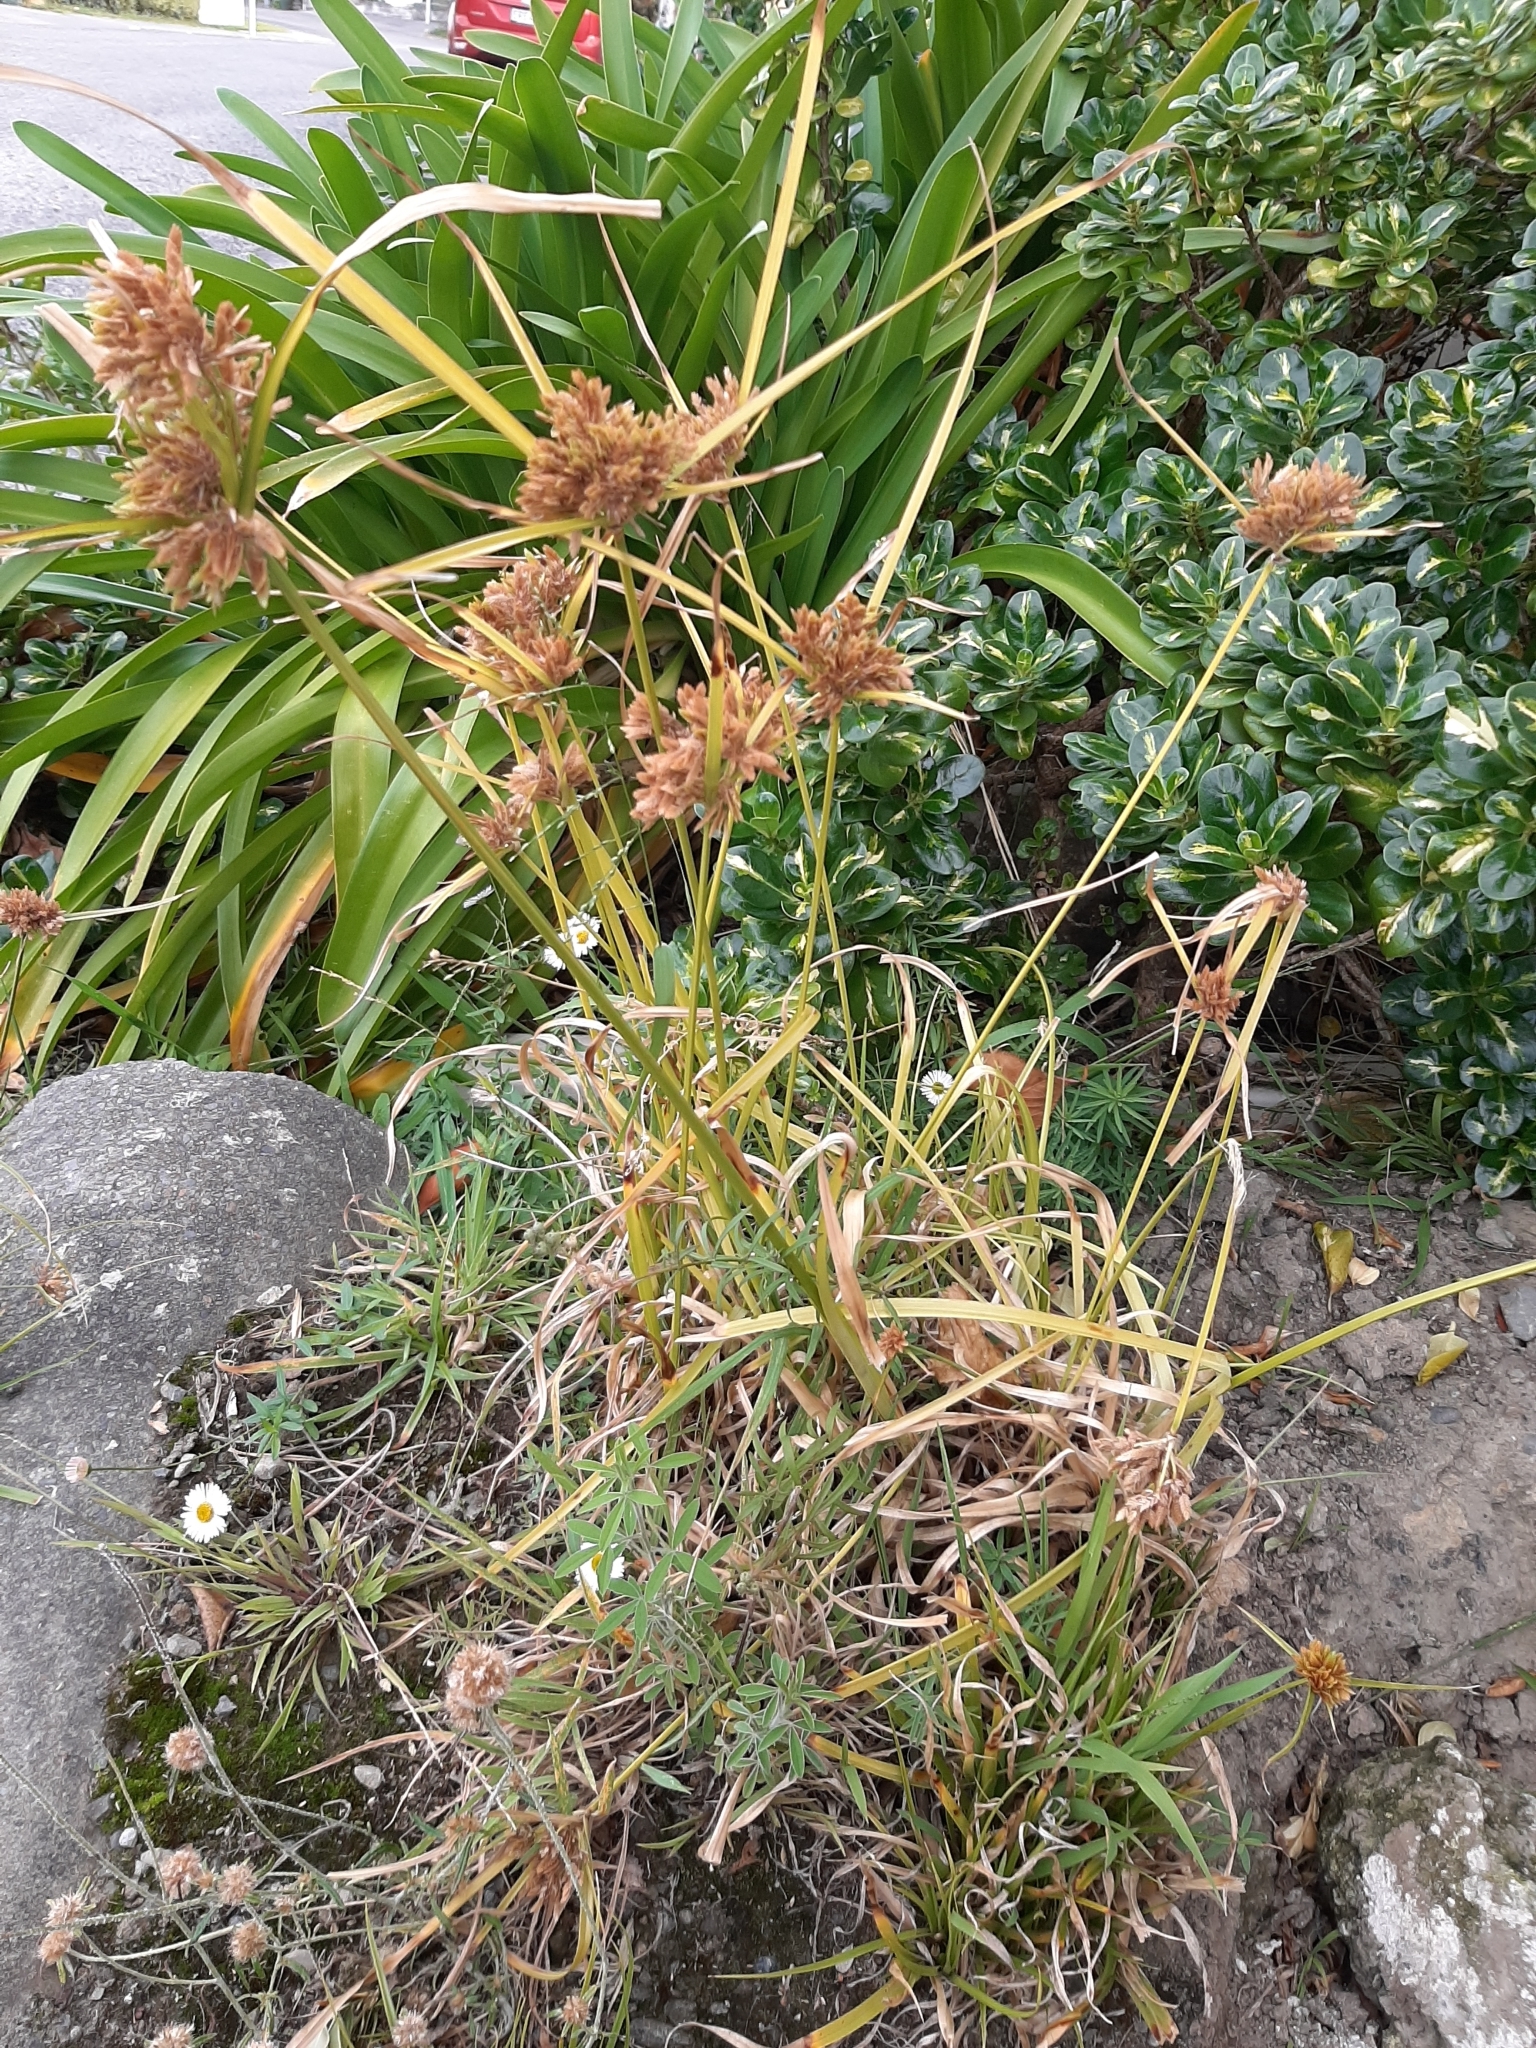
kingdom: Plantae
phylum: Tracheophyta
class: Liliopsida
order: Poales
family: Cyperaceae
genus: Cyperus
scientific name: Cyperus eragrostis
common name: Tall flatsedge
